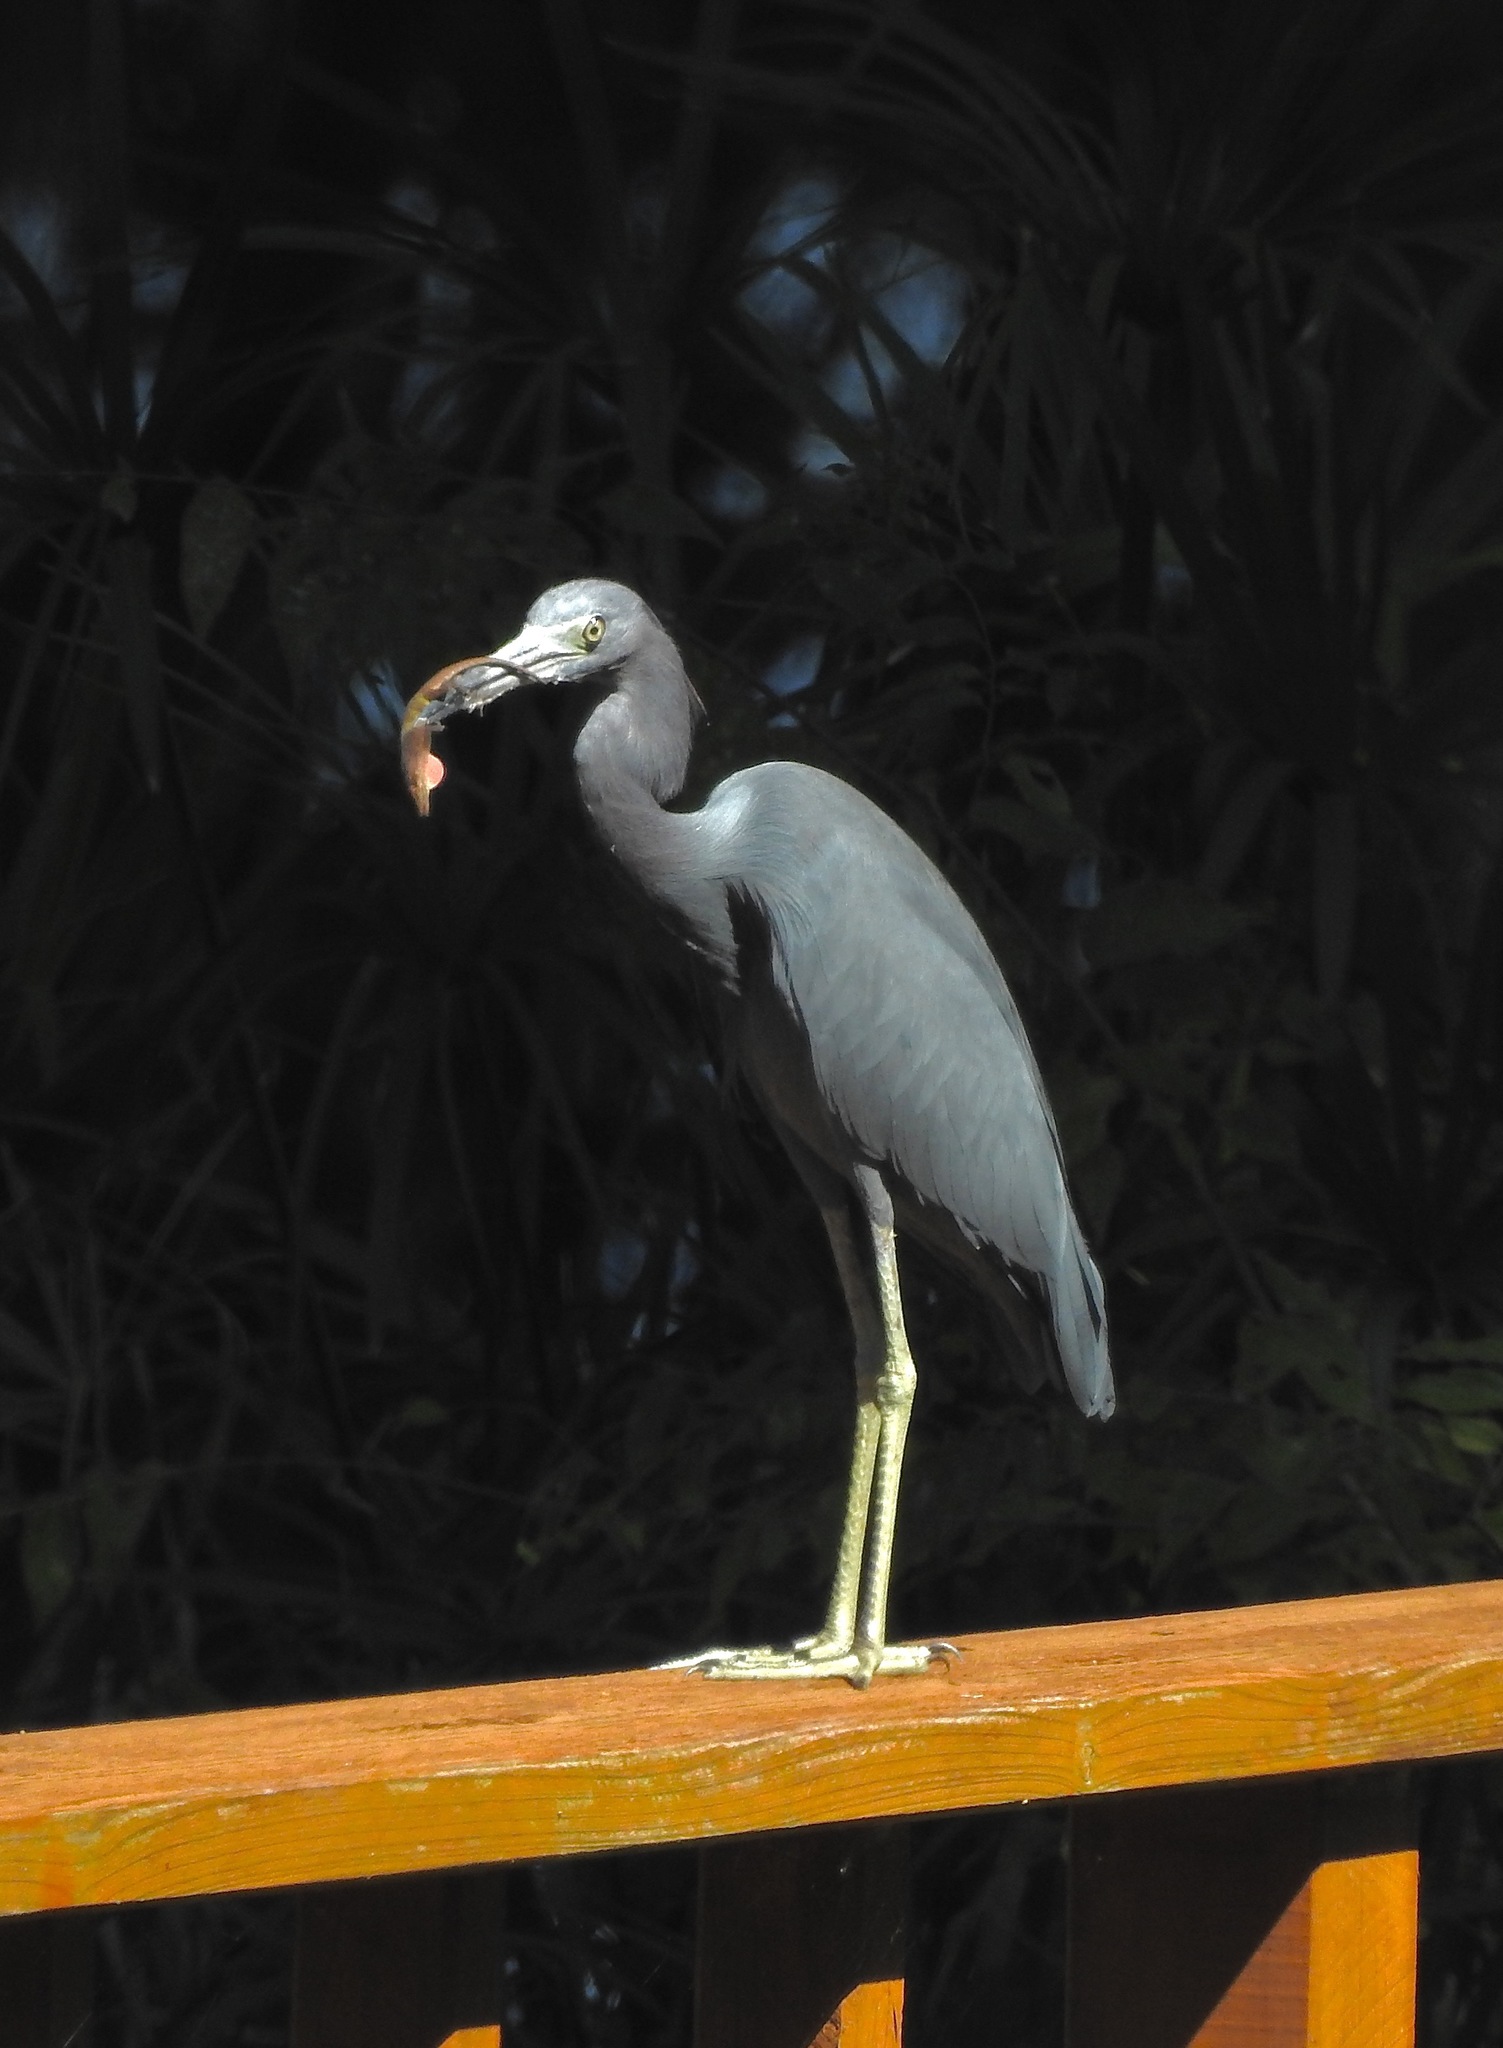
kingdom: Animalia
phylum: Chordata
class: Aves
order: Pelecaniformes
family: Ardeidae
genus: Egretta
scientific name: Egretta caerulea
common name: Little blue heron
